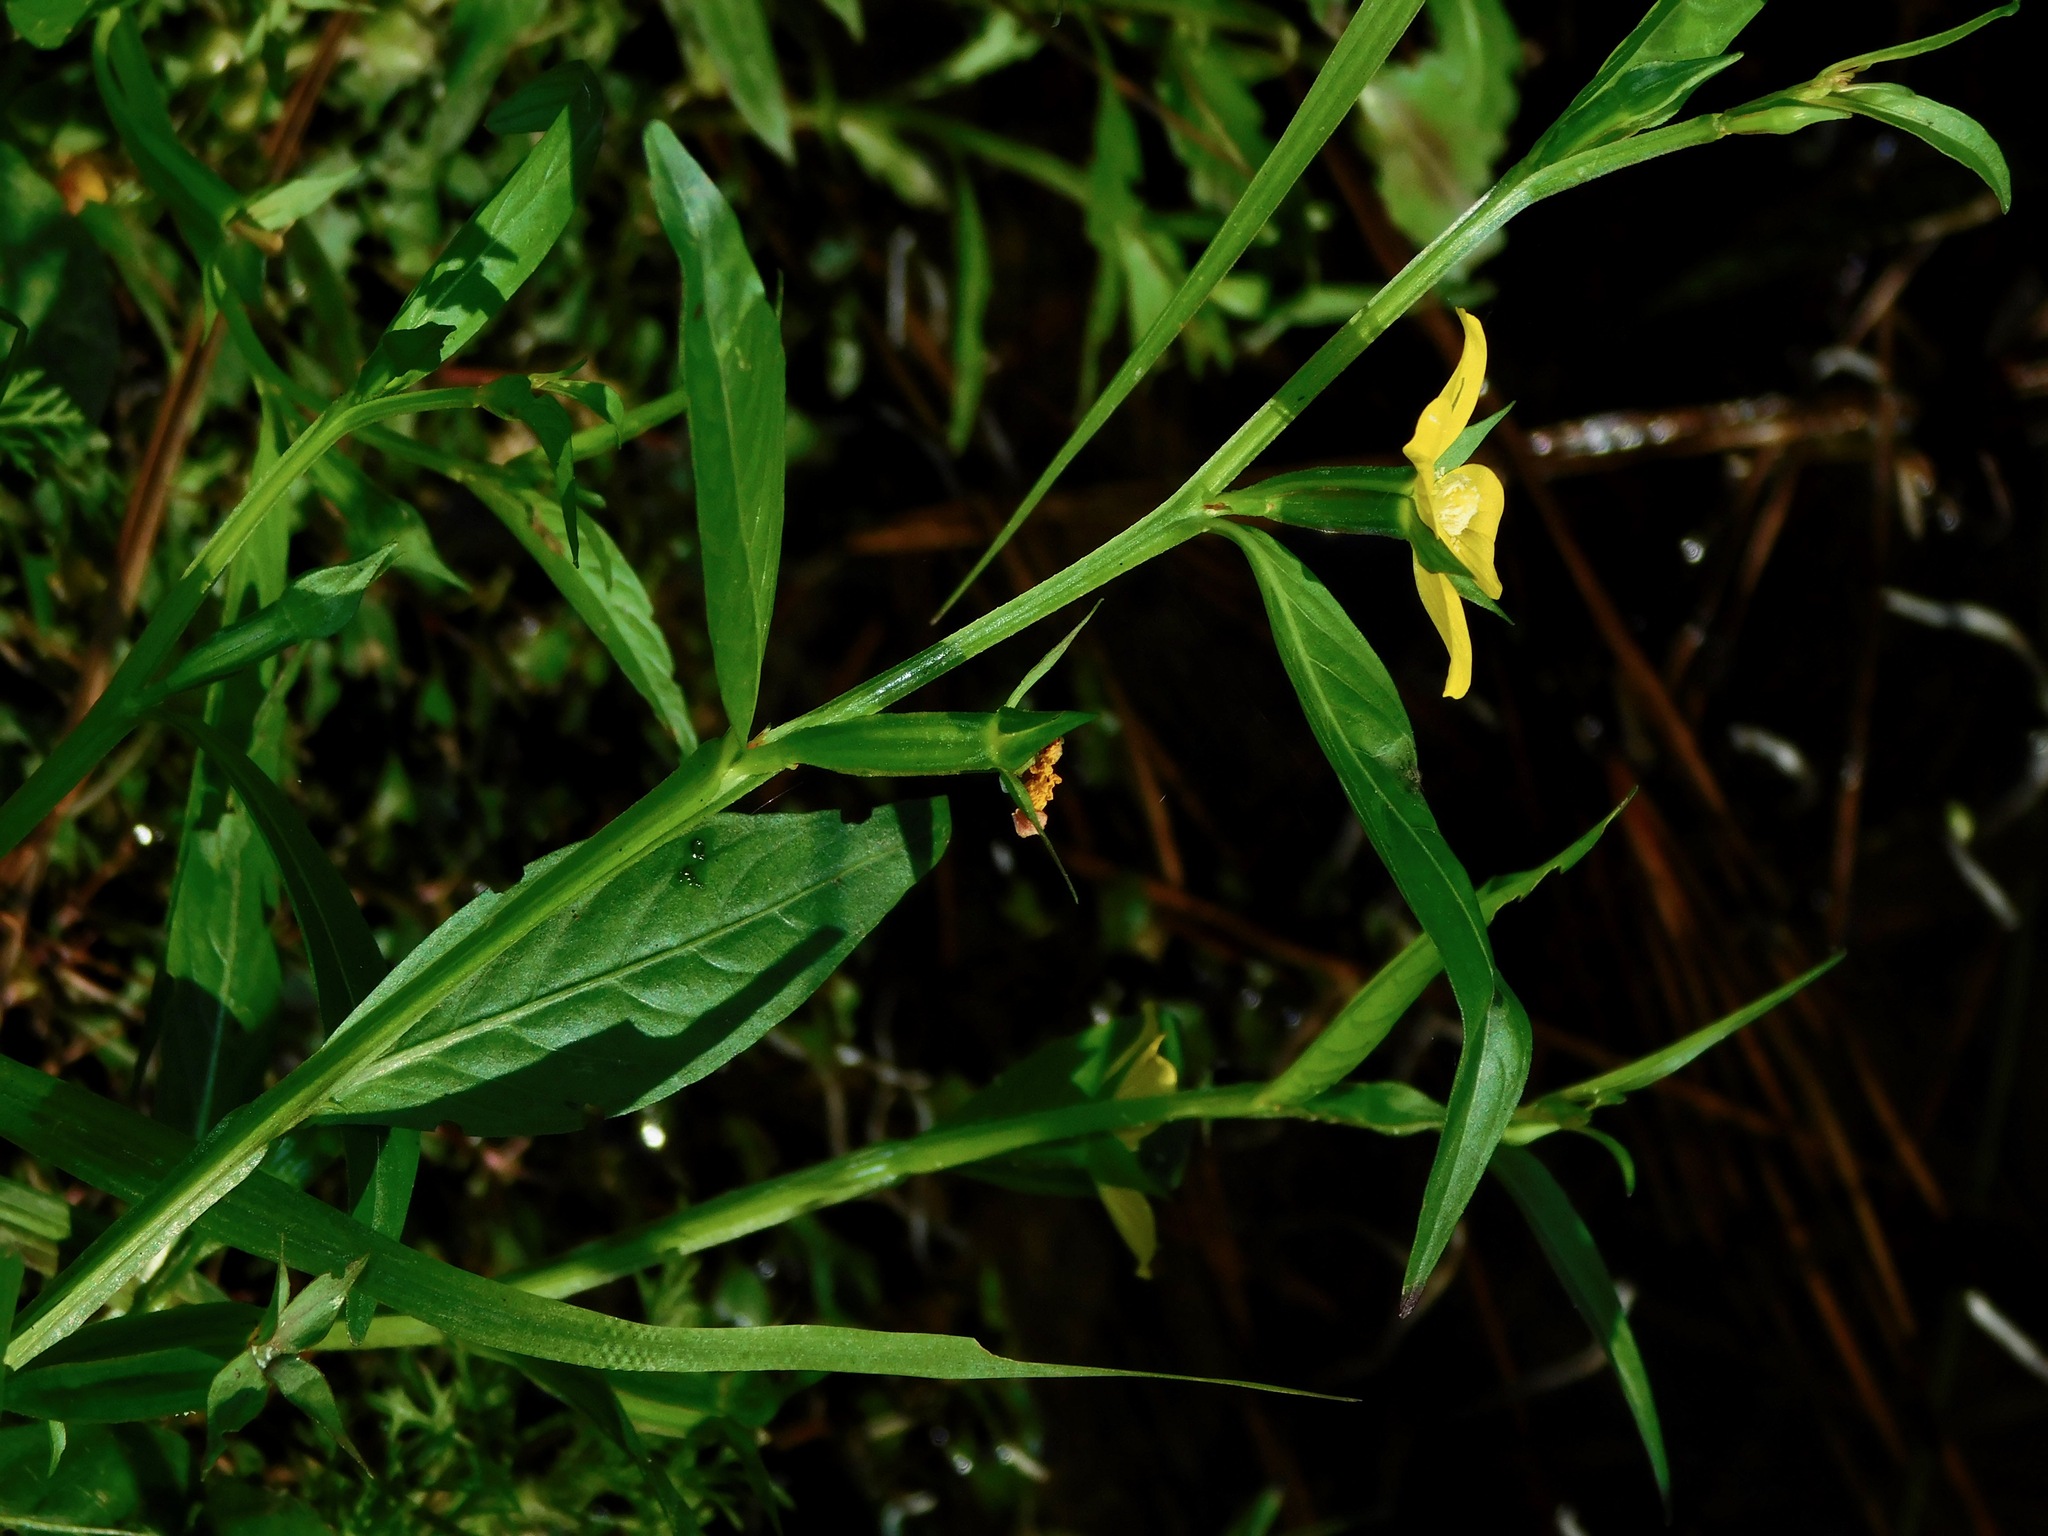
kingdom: Plantae
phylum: Tracheophyta
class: Magnoliopsida
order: Myrtales
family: Onagraceae
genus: Ludwigia
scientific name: Ludwigia decurrens
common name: Winged water-primrose
